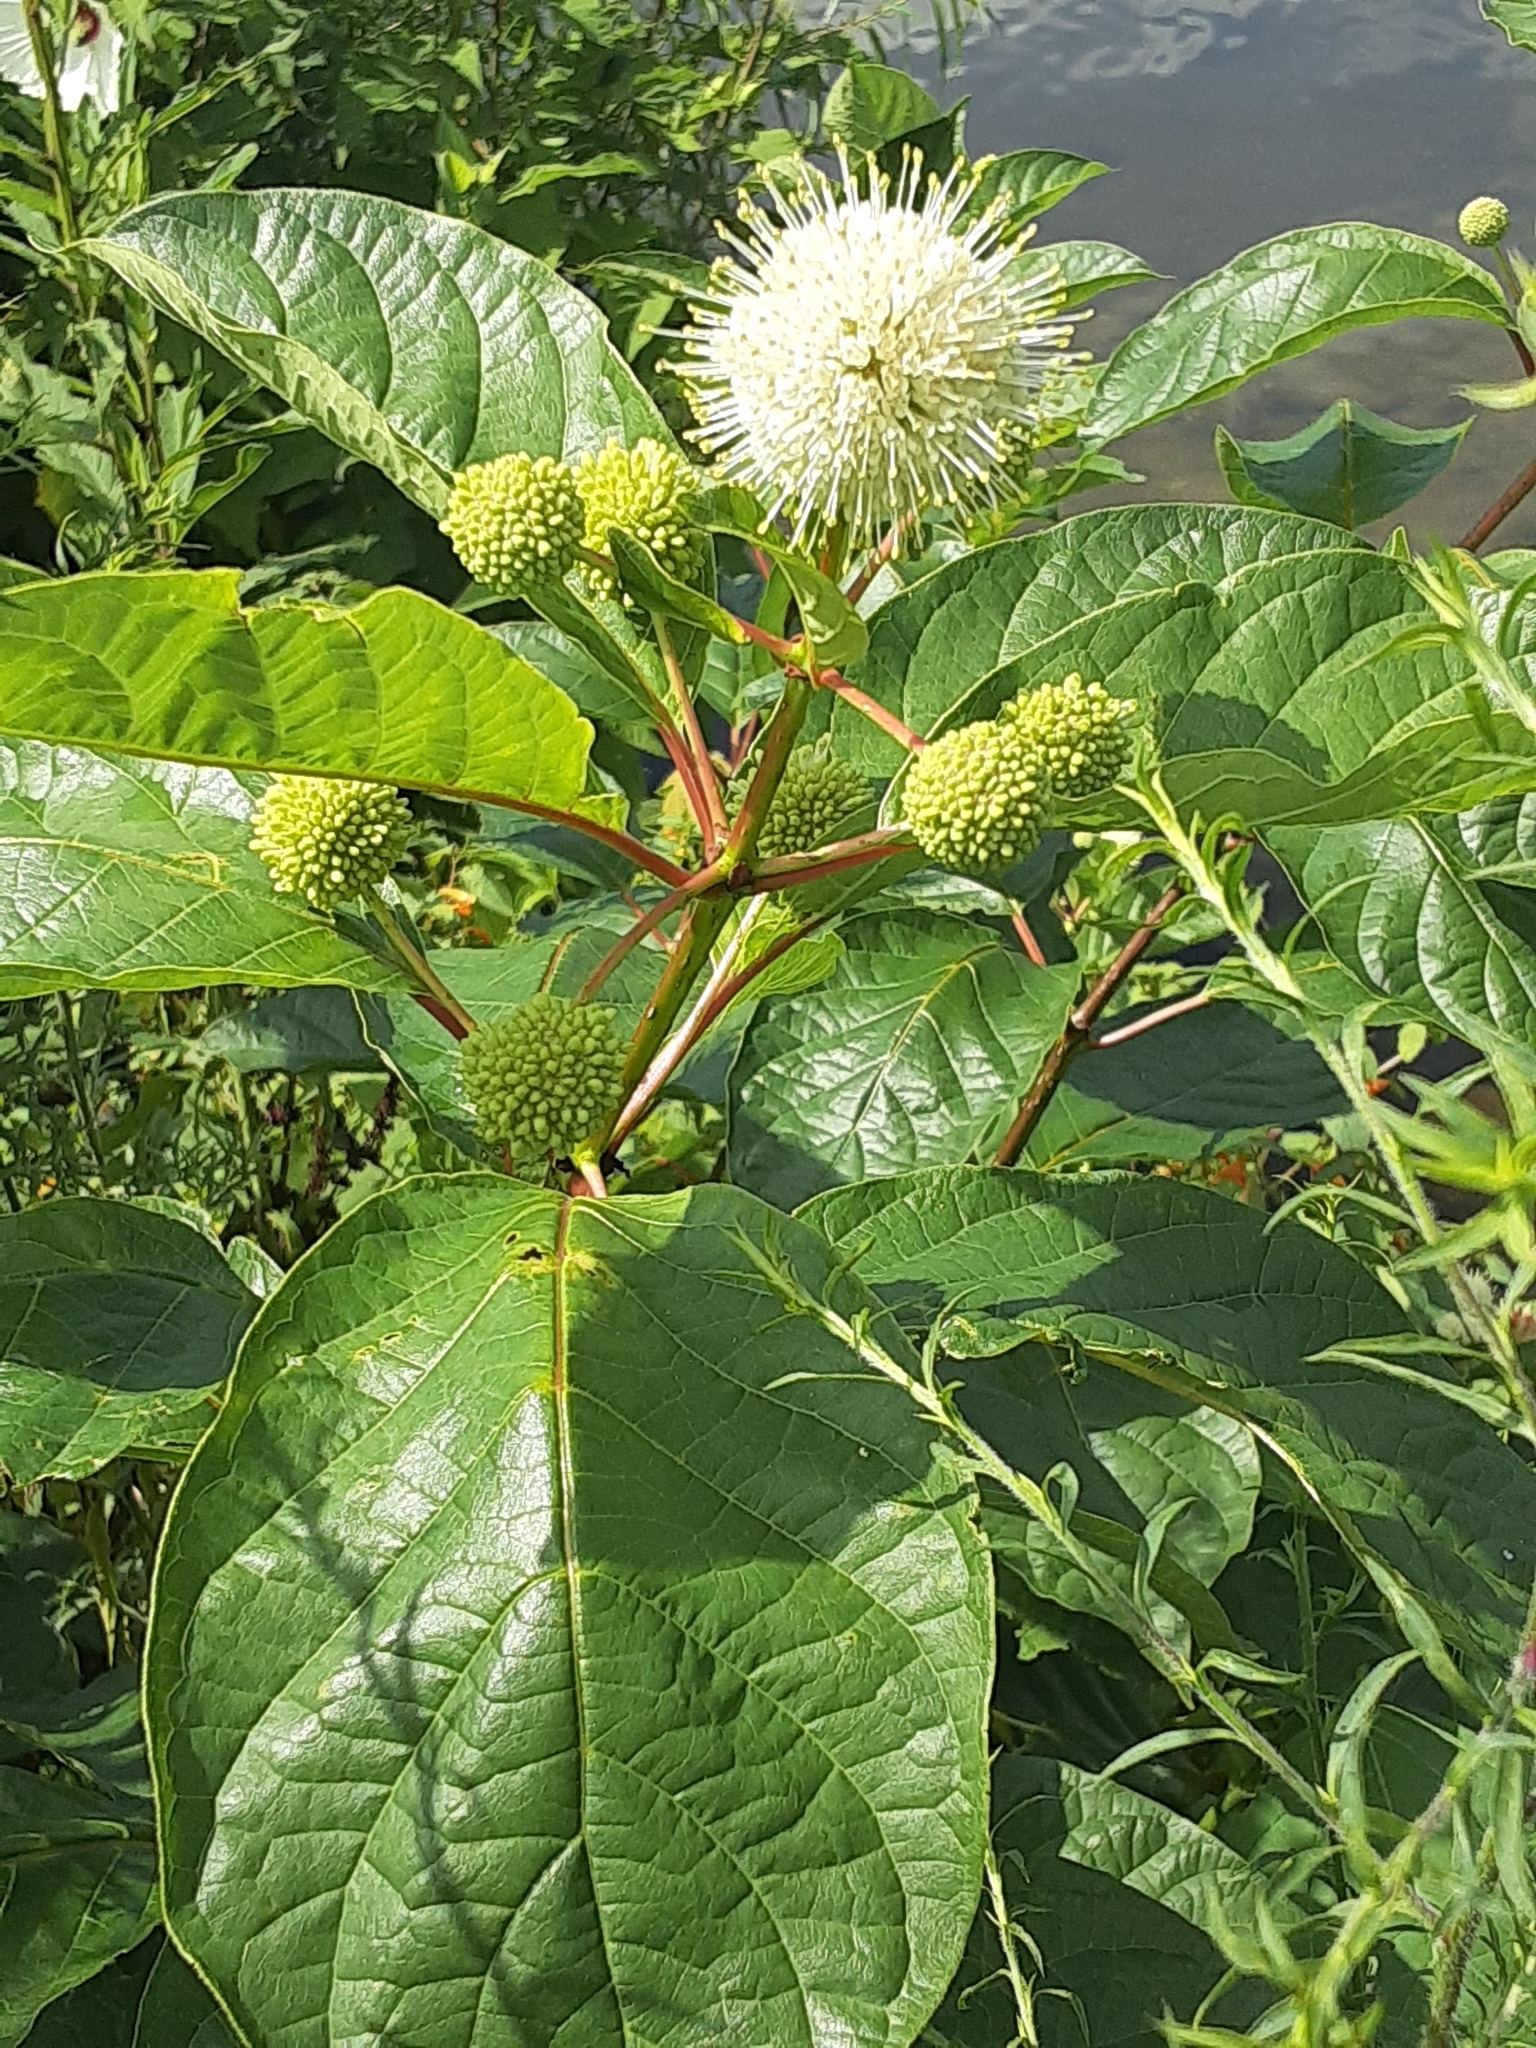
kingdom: Plantae
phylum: Tracheophyta
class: Magnoliopsida
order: Gentianales
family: Rubiaceae
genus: Cephalanthus
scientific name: Cephalanthus occidentalis
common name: Button-willow
